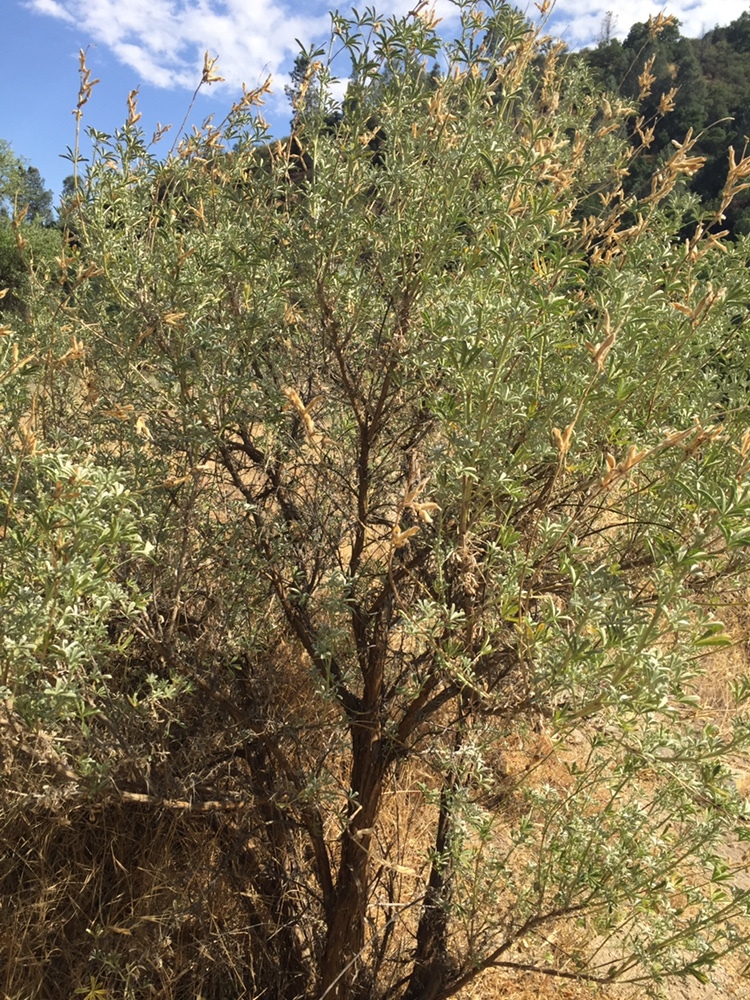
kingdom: Plantae
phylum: Tracheophyta
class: Magnoliopsida
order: Fabales
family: Fabaceae
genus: Lupinus
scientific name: Lupinus albifrons
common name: Foothill lupine
